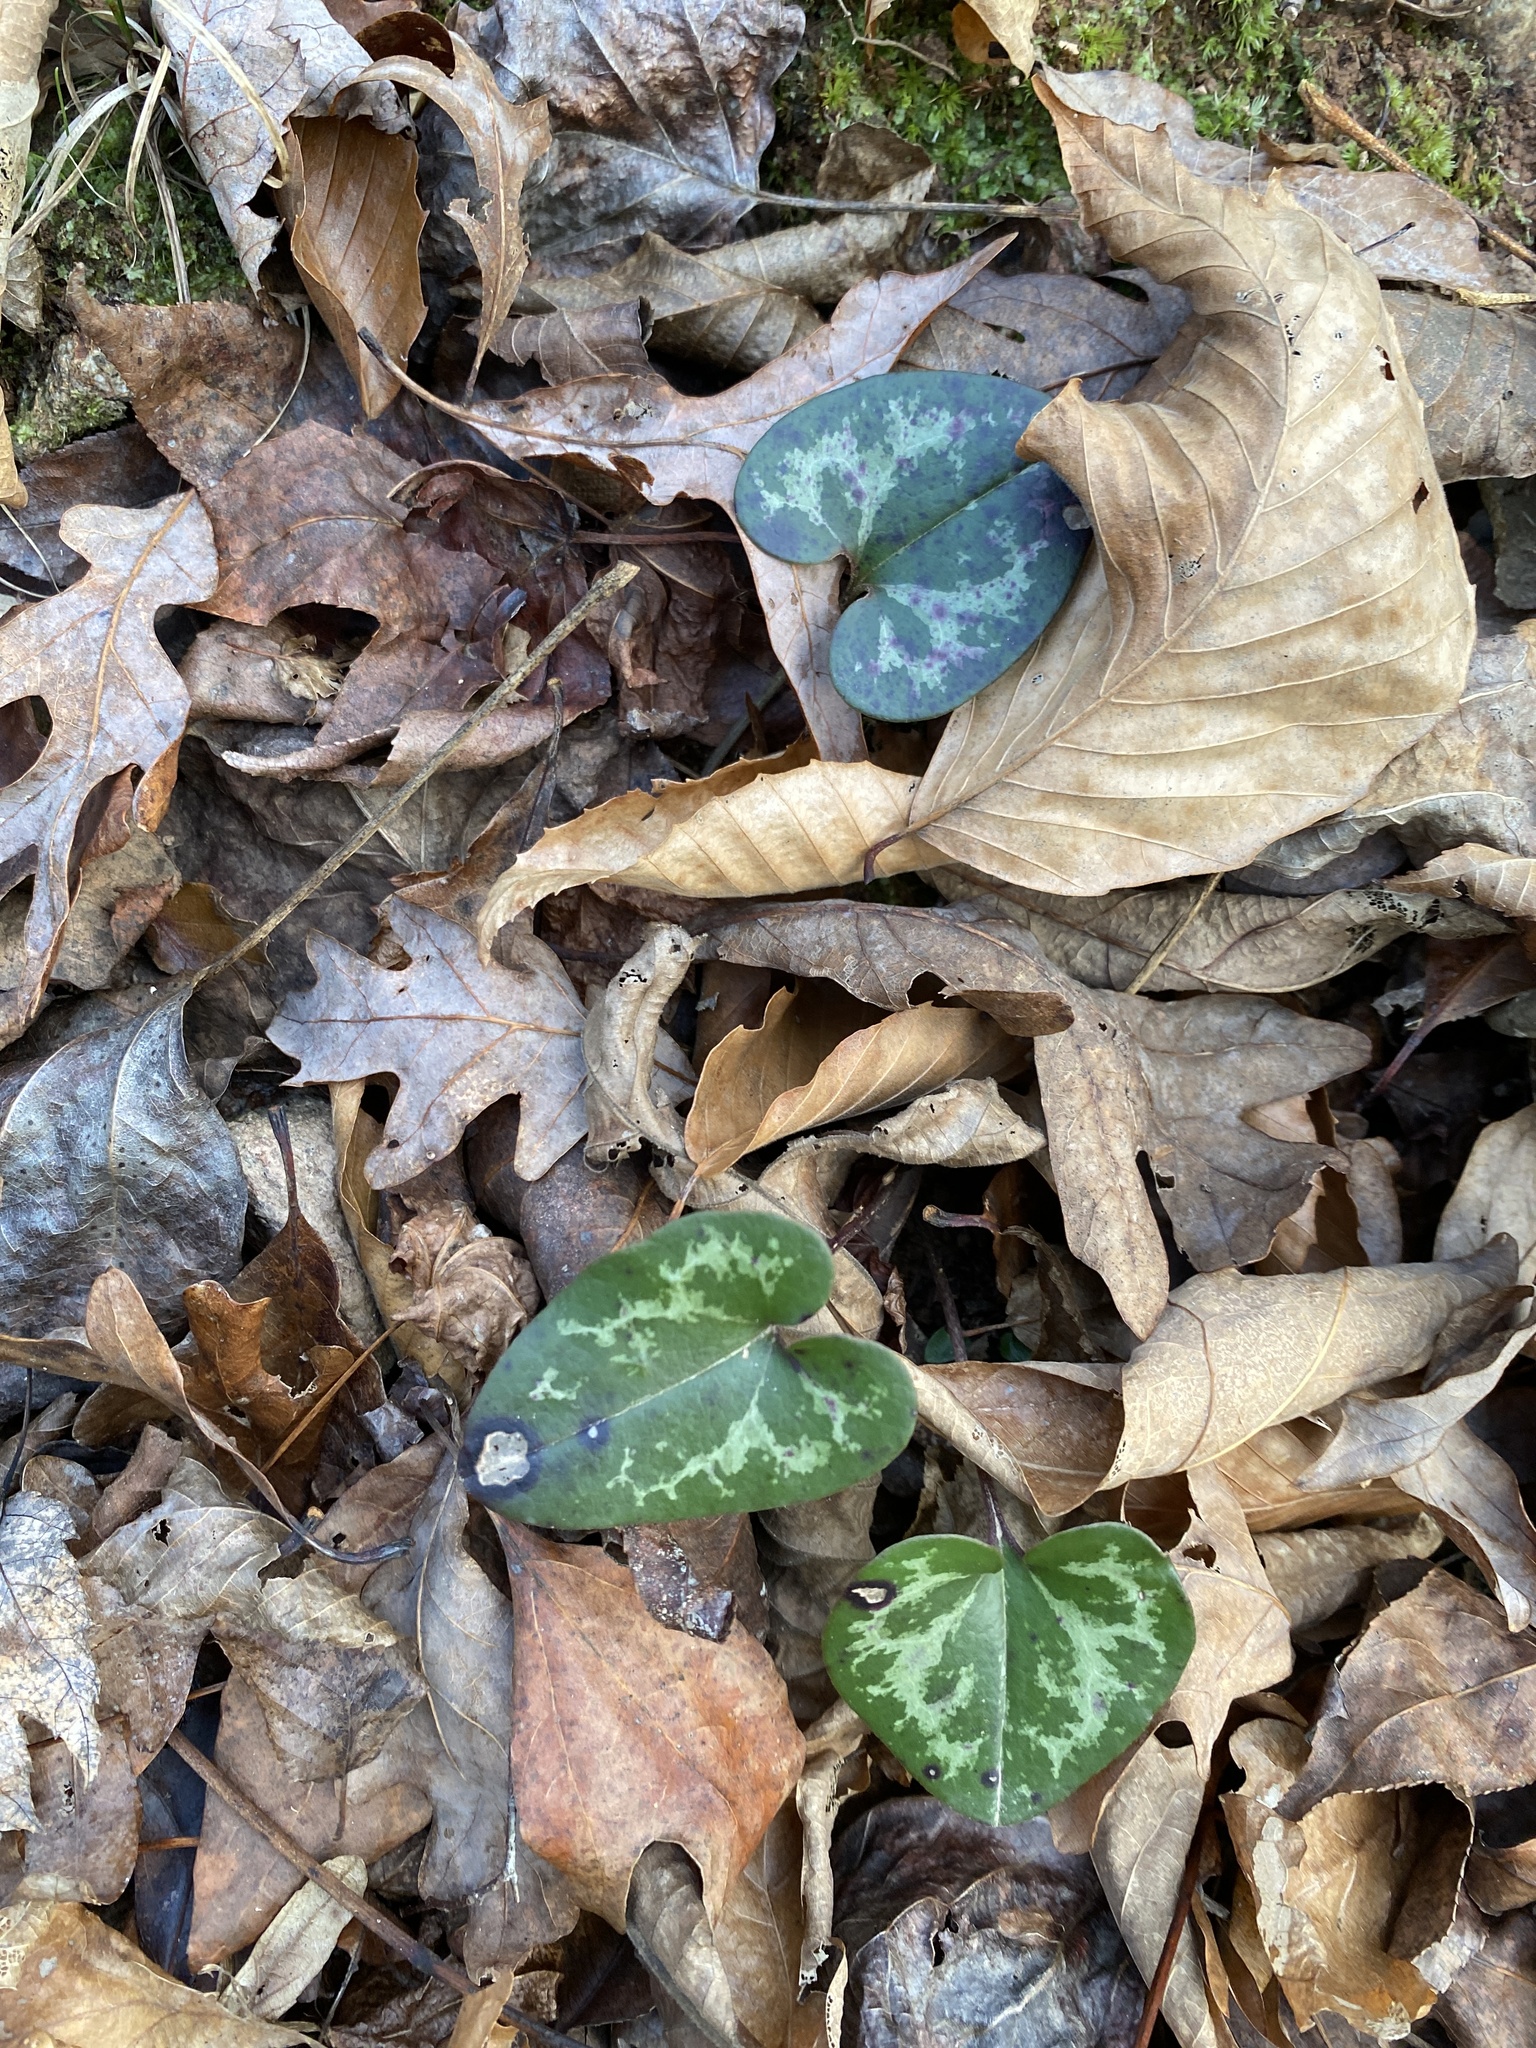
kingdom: Plantae
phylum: Tracheophyta
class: Magnoliopsida
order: Piperales
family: Aristolochiaceae
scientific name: Aristolochiaceae
